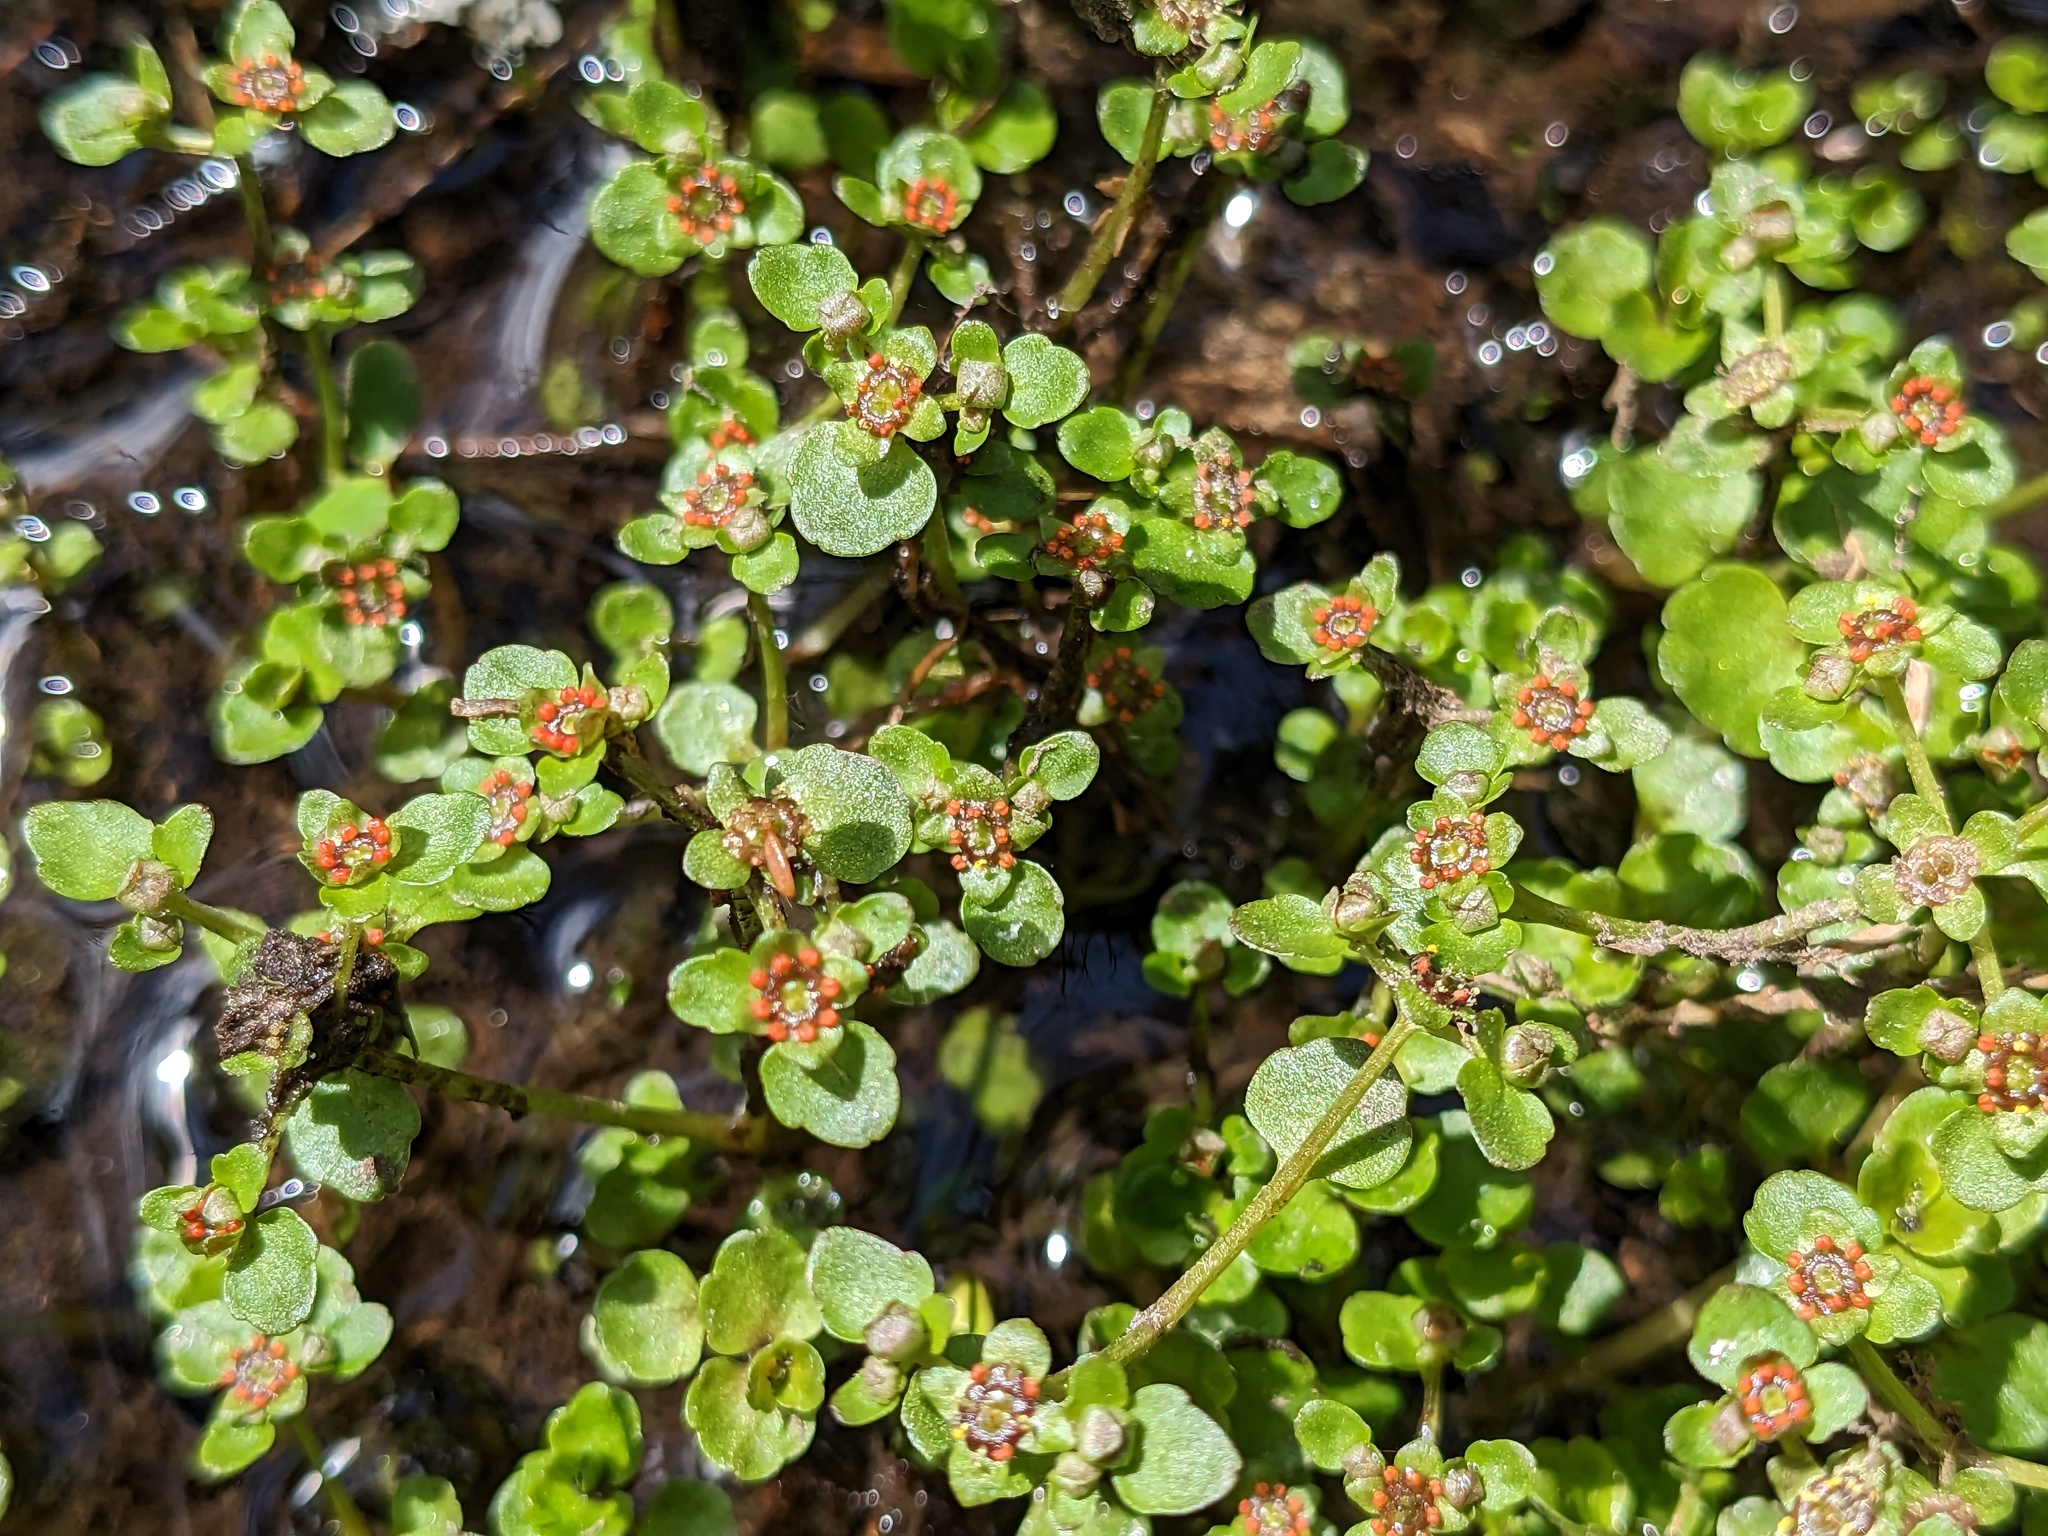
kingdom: Plantae
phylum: Tracheophyta
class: Magnoliopsida
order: Saxifragales
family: Saxifragaceae
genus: Chrysosplenium
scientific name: Chrysosplenium americanum
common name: American golden-saxifrage
